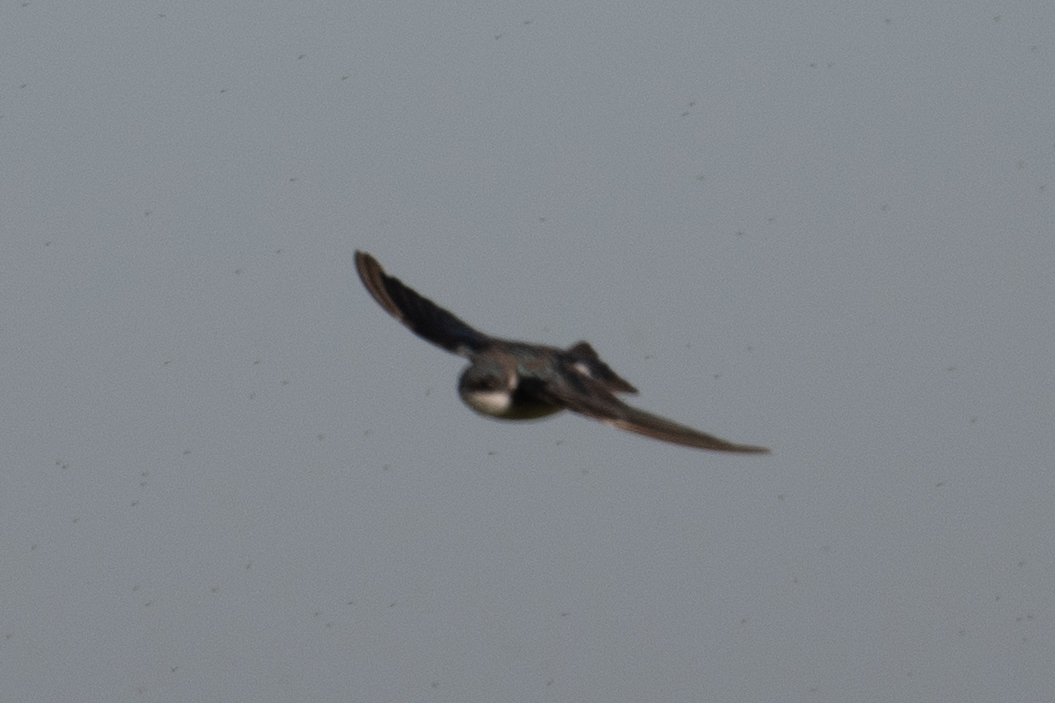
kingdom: Animalia
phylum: Chordata
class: Aves
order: Passeriformes
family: Hirundinidae
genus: Tachycineta
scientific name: Tachycineta bicolor
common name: Tree swallow
